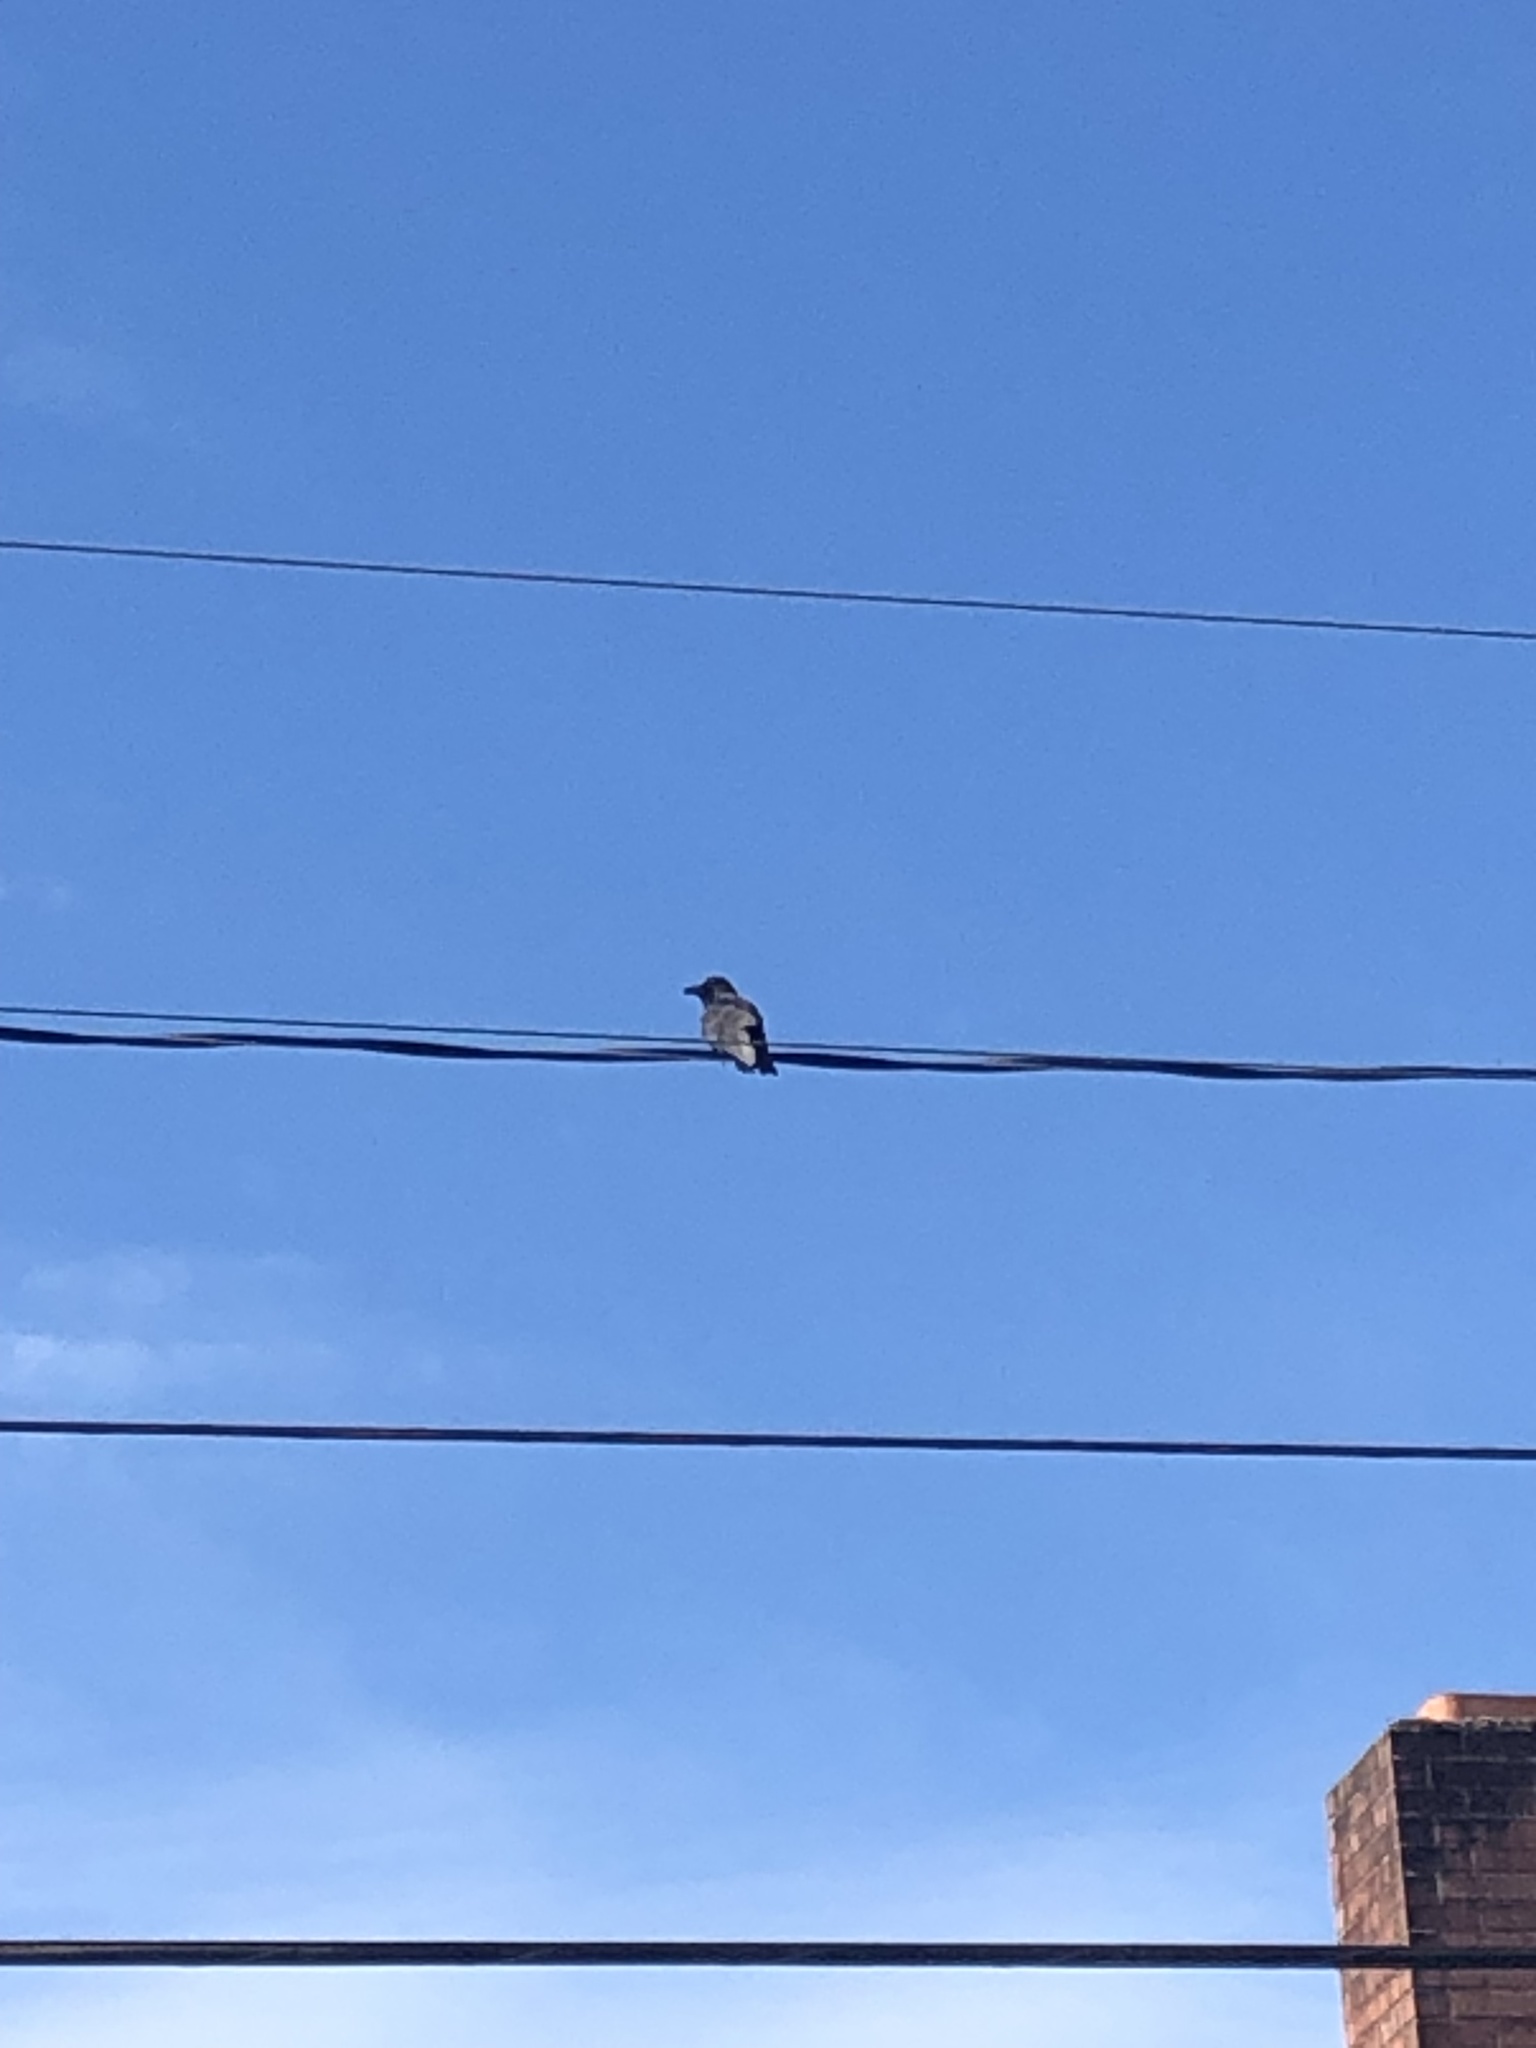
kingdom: Animalia
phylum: Chordata
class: Aves
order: Passeriformes
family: Corvidae
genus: Corvus
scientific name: Corvus brachyrhynchos
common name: American crow
